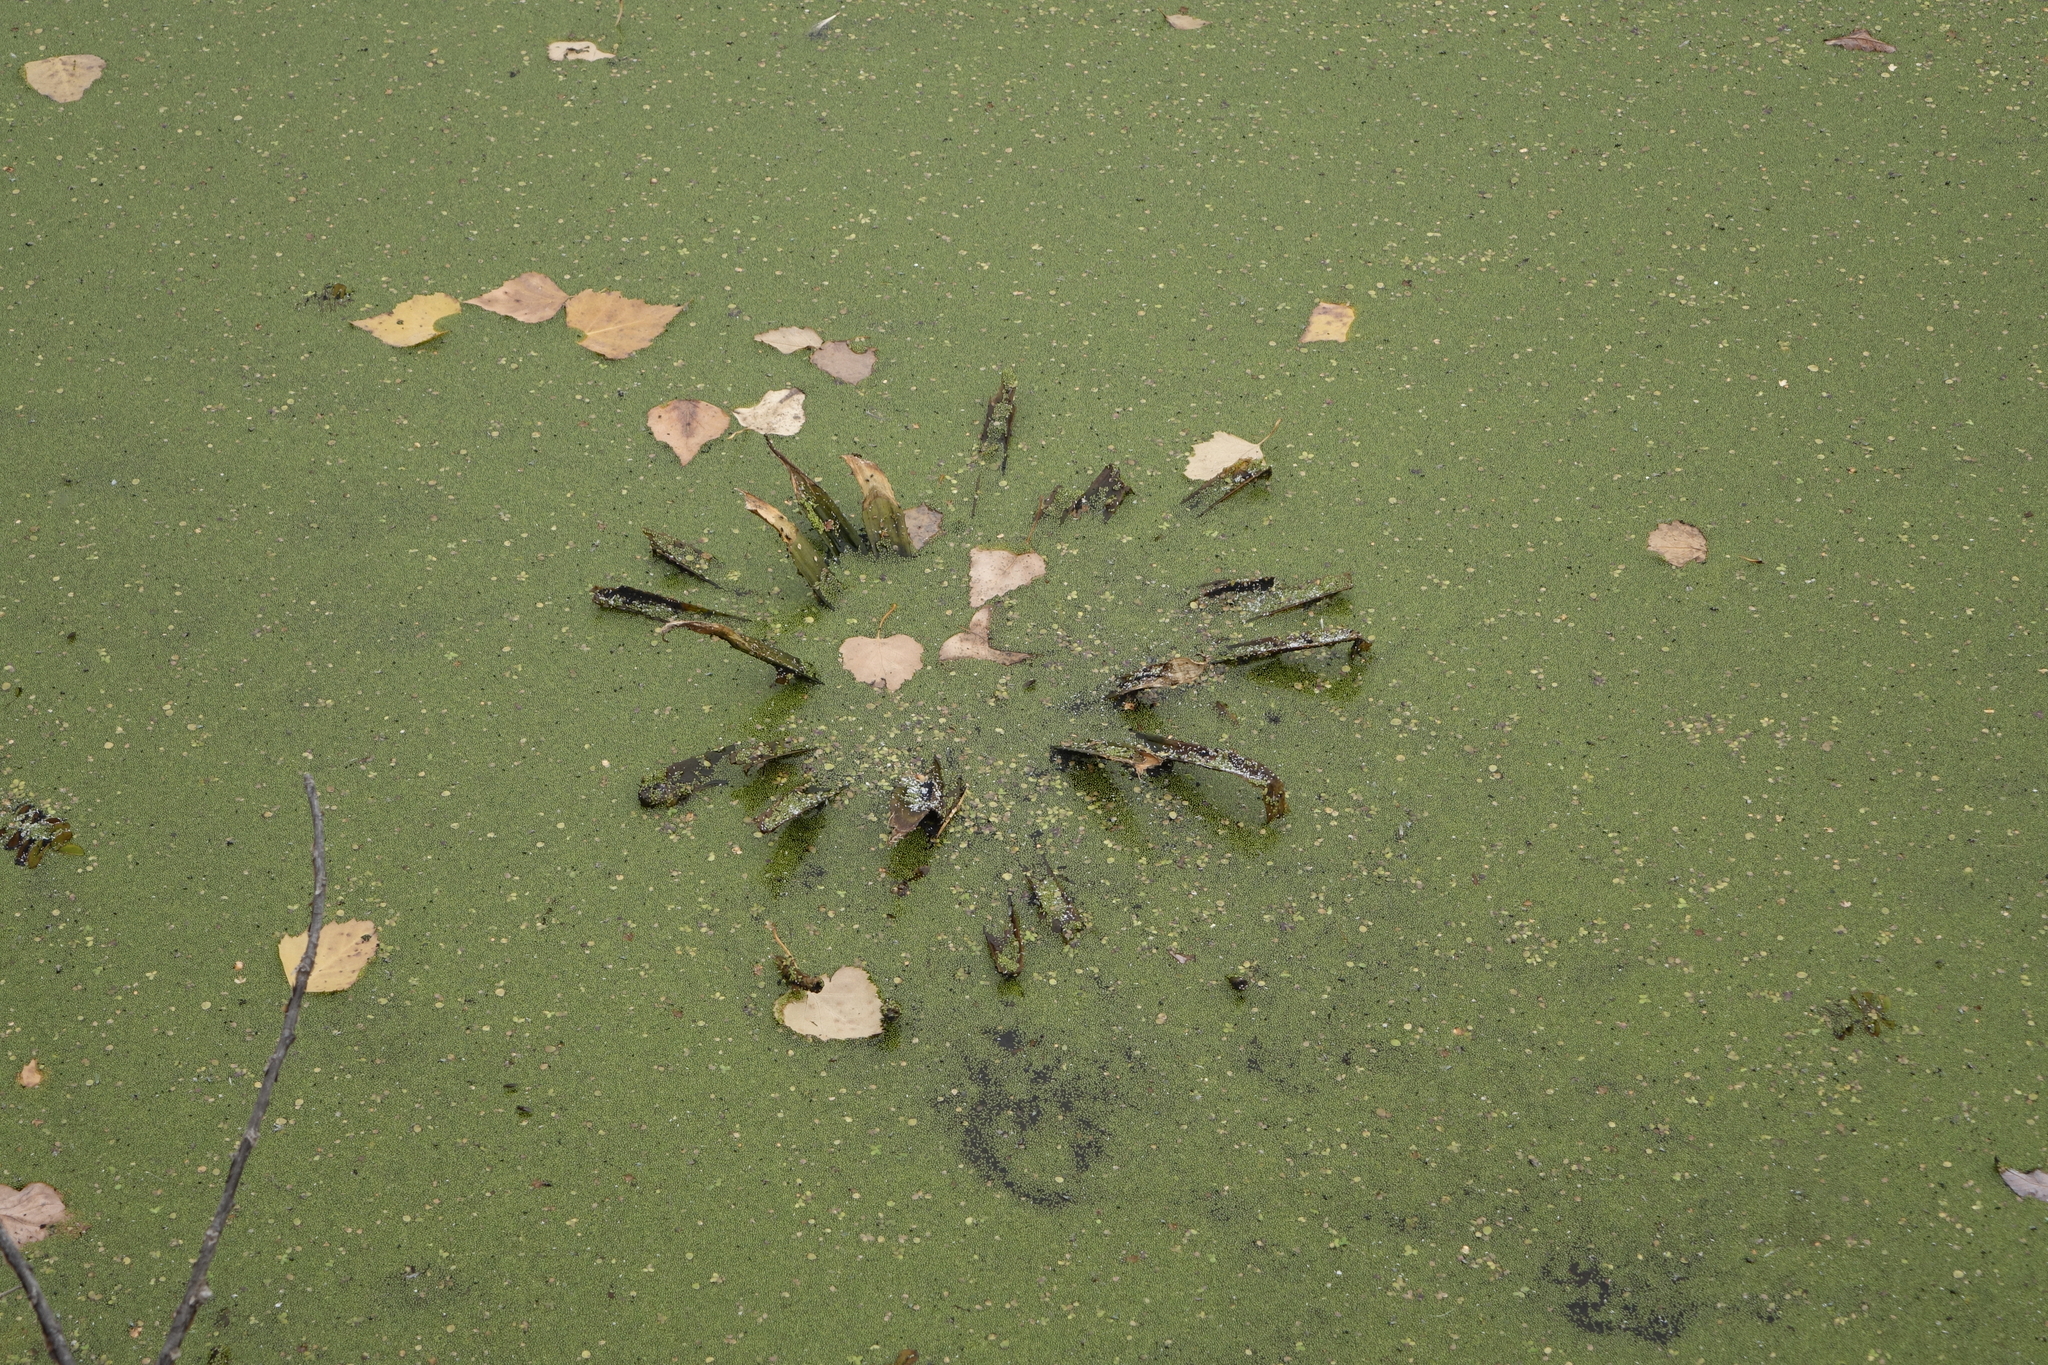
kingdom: Plantae
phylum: Tracheophyta
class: Liliopsida
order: Alismatales
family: Hydrocharitaceae
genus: Stratiotes
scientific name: Stratiotes aloides
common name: Water-soldier
